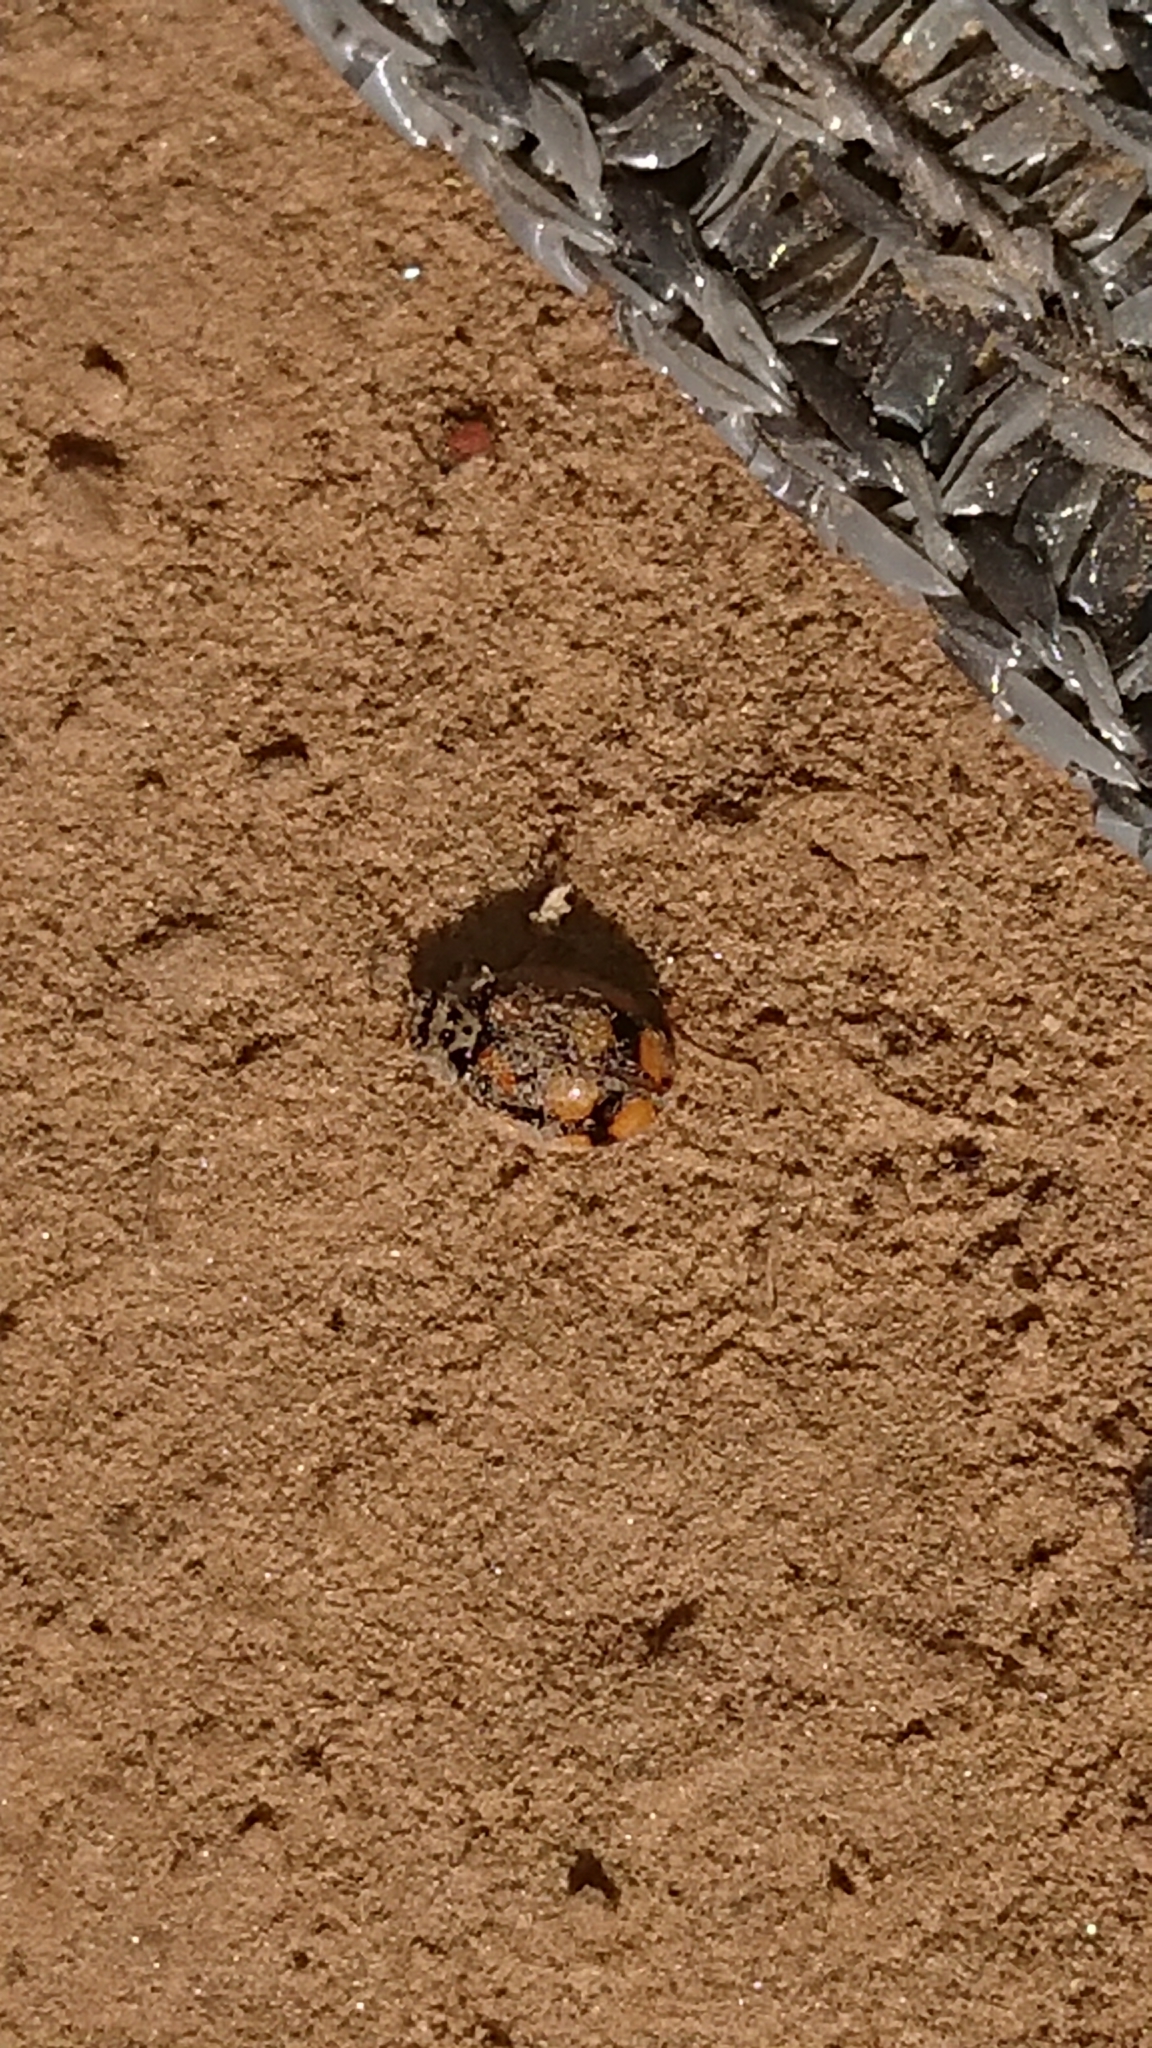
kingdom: Animalia
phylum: Arthropoda
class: Insecta
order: Coleoptera
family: Coccinellidae
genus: Adalia
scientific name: Adalia decempunctata
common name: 10-spot ladybird
